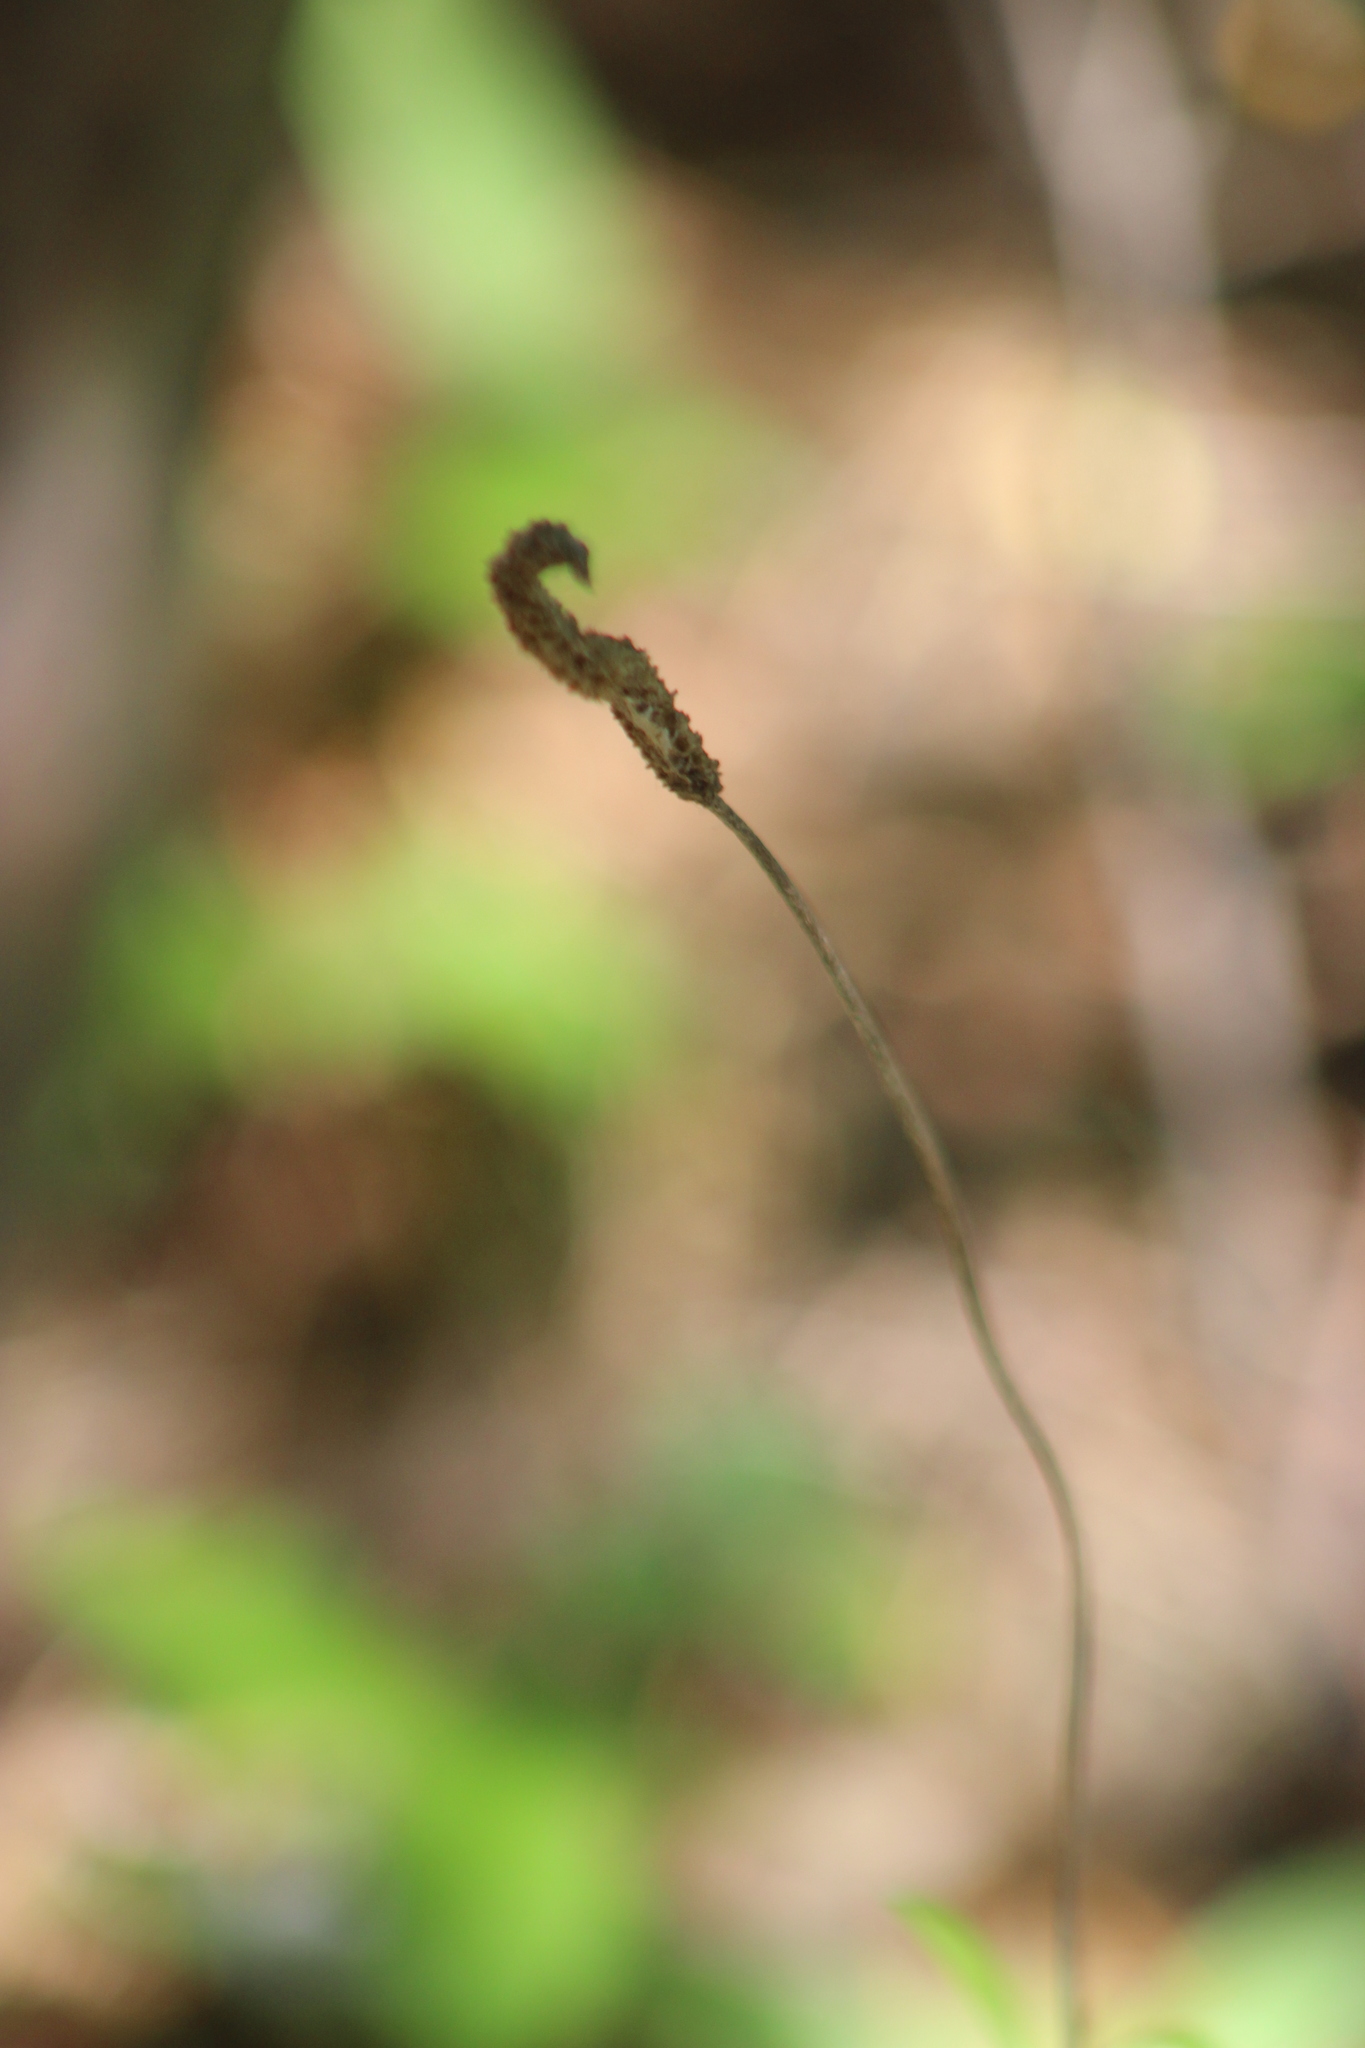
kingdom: Plantae
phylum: Tracheophyta
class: Magnoliopsida
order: Lamiales
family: Plantaginaceae
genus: Plantago
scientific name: Plantago media
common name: Hoary plantain
